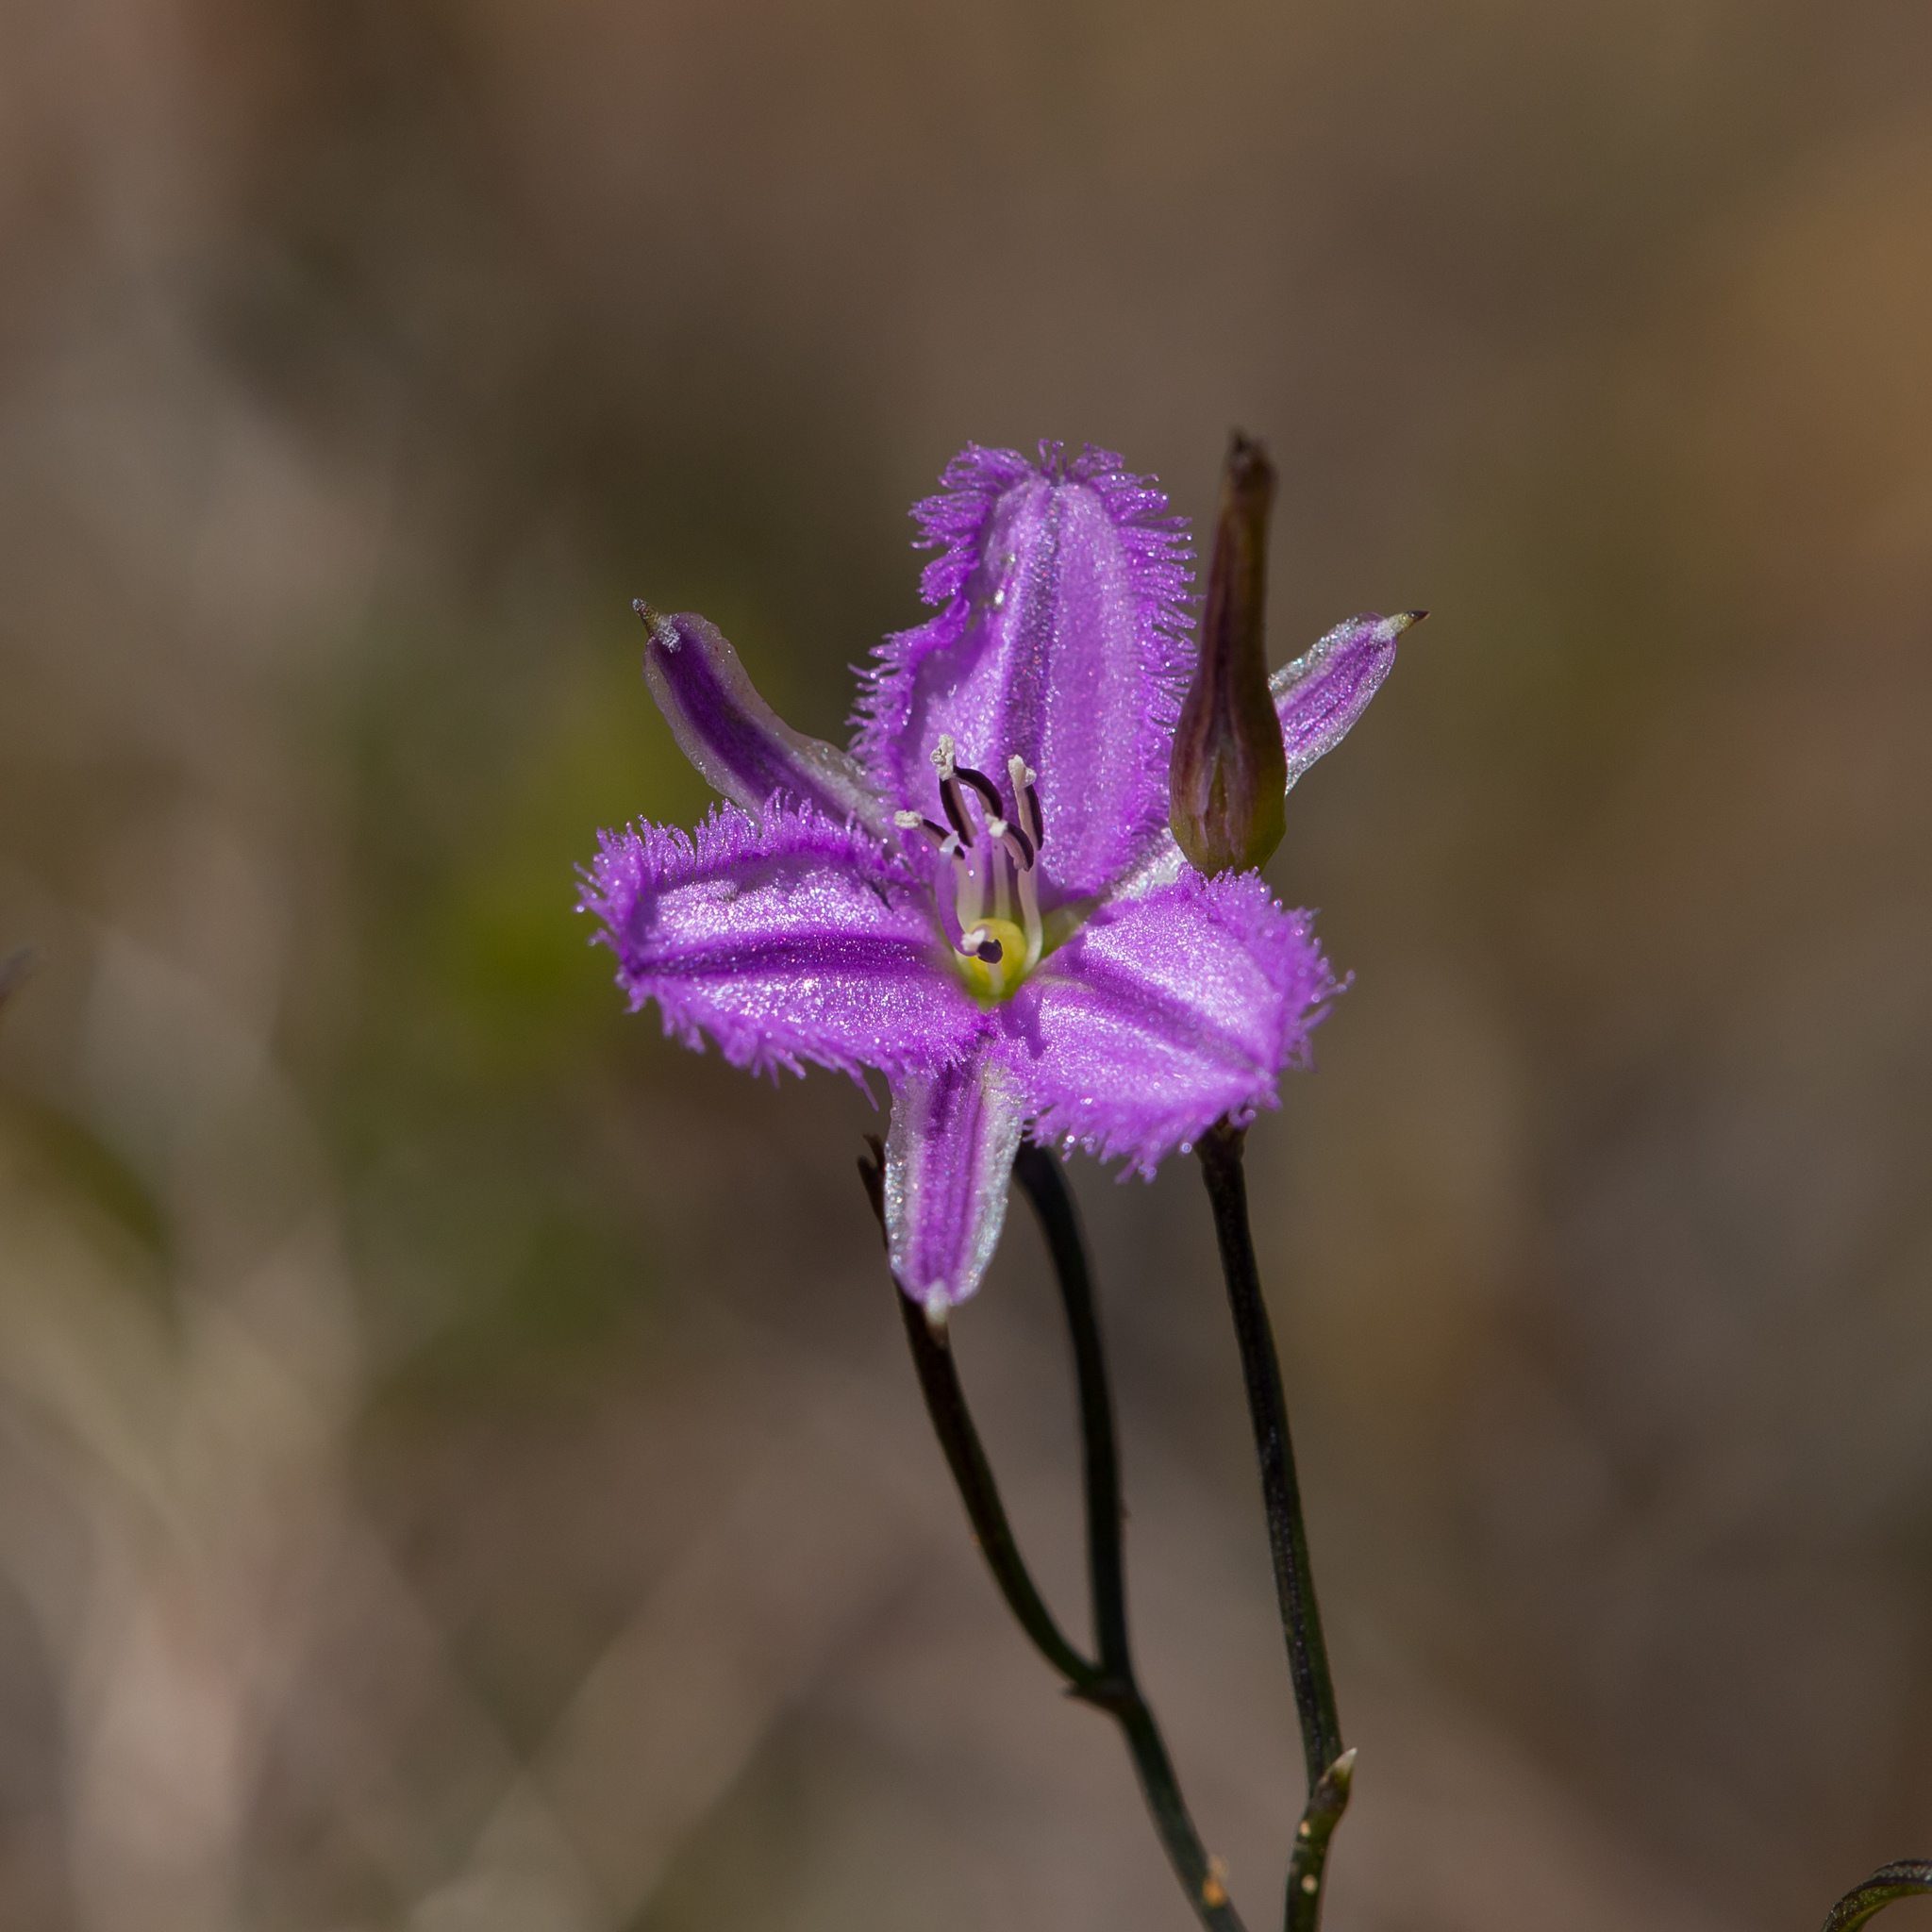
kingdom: Plantae
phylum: Tracheophyta
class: Liliopsida
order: Asparagales
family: Asparagaceae
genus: Thysanotus
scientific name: Thysanotus patersonii
